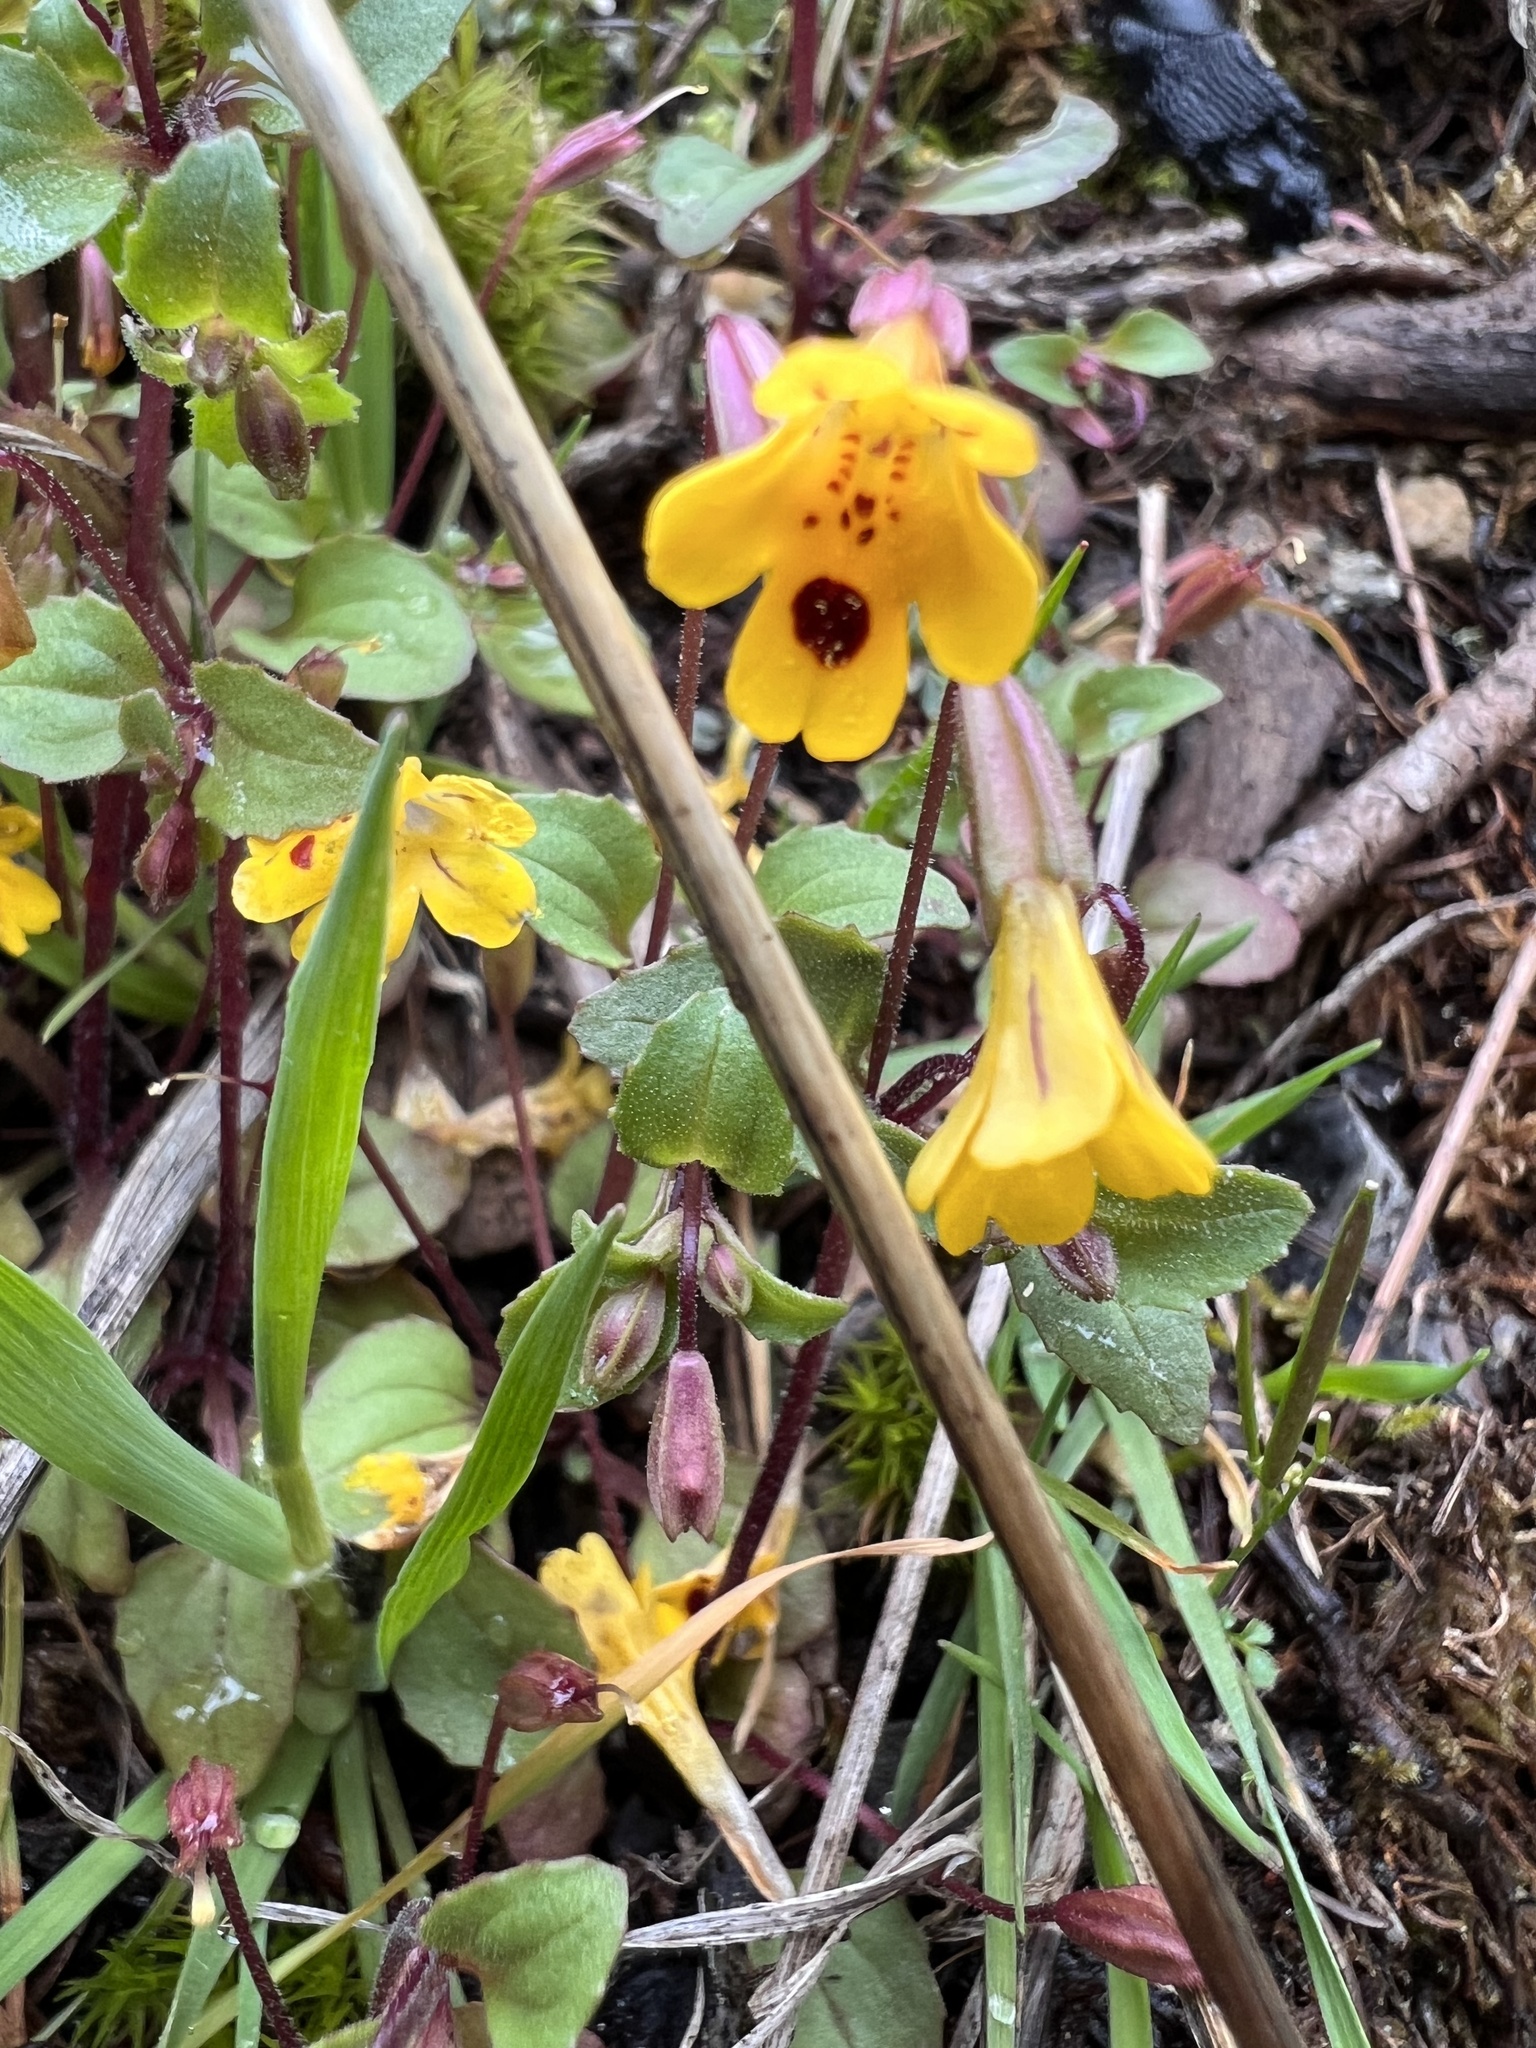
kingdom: Plantae
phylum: Tracheophyta
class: Magnoliopsida
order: Lamiales
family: Phrymaceae
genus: Erythranthe
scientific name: Erythranthe alsinoides
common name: Chickweed monkeyflower
